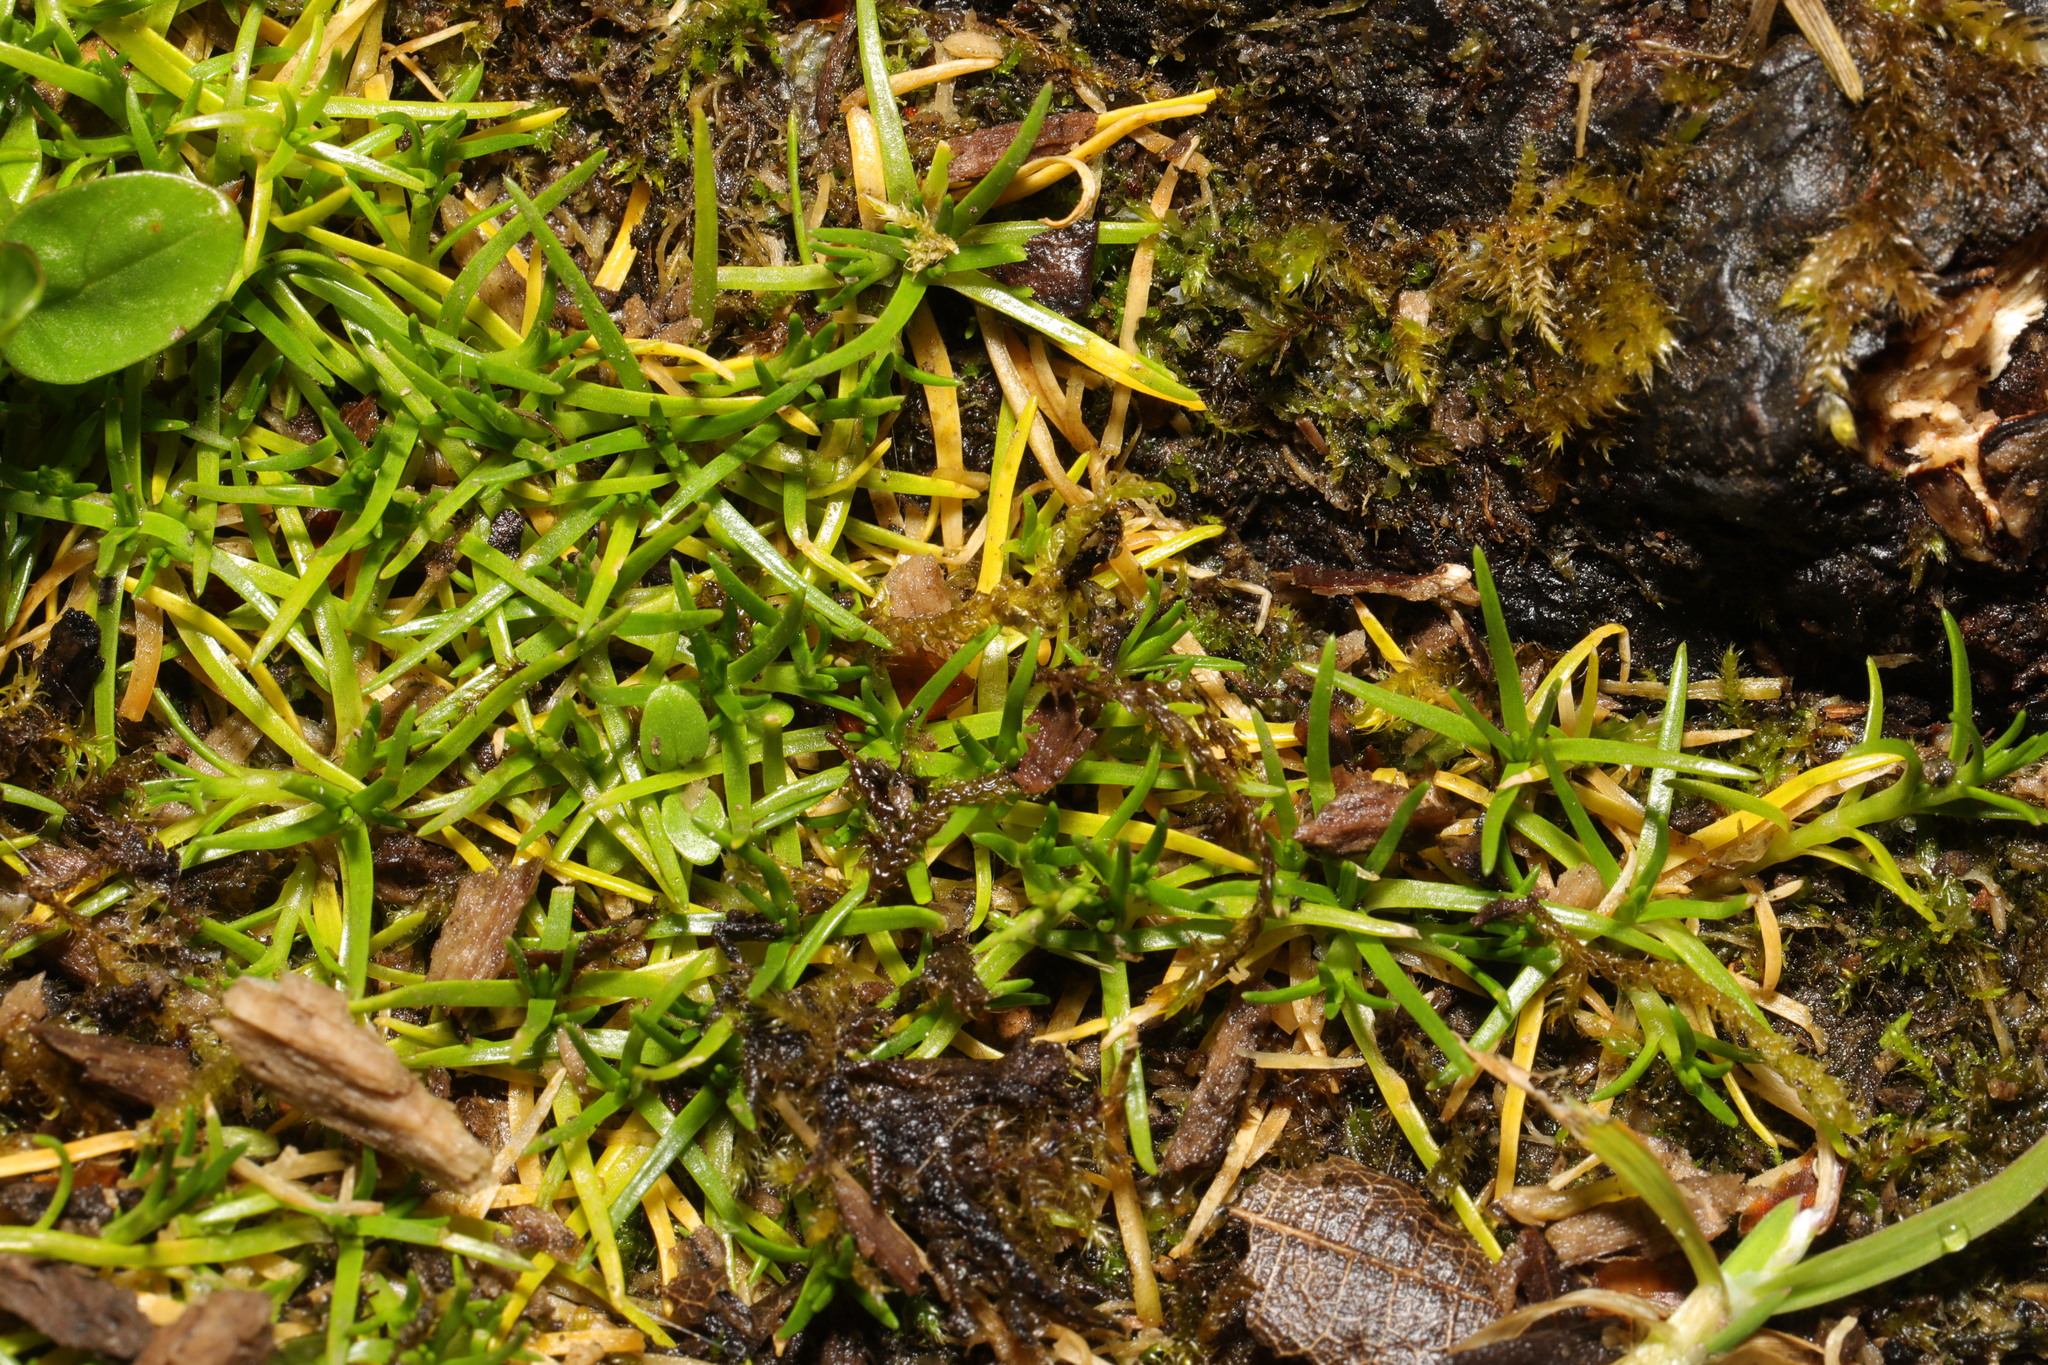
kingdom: Plantae
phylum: Tracheophyta
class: Magnoliopsida
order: Caryophyllales
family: Caryophyllaceae
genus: Sagina
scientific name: Sagina procumbens
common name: Procumbent pearlwort
